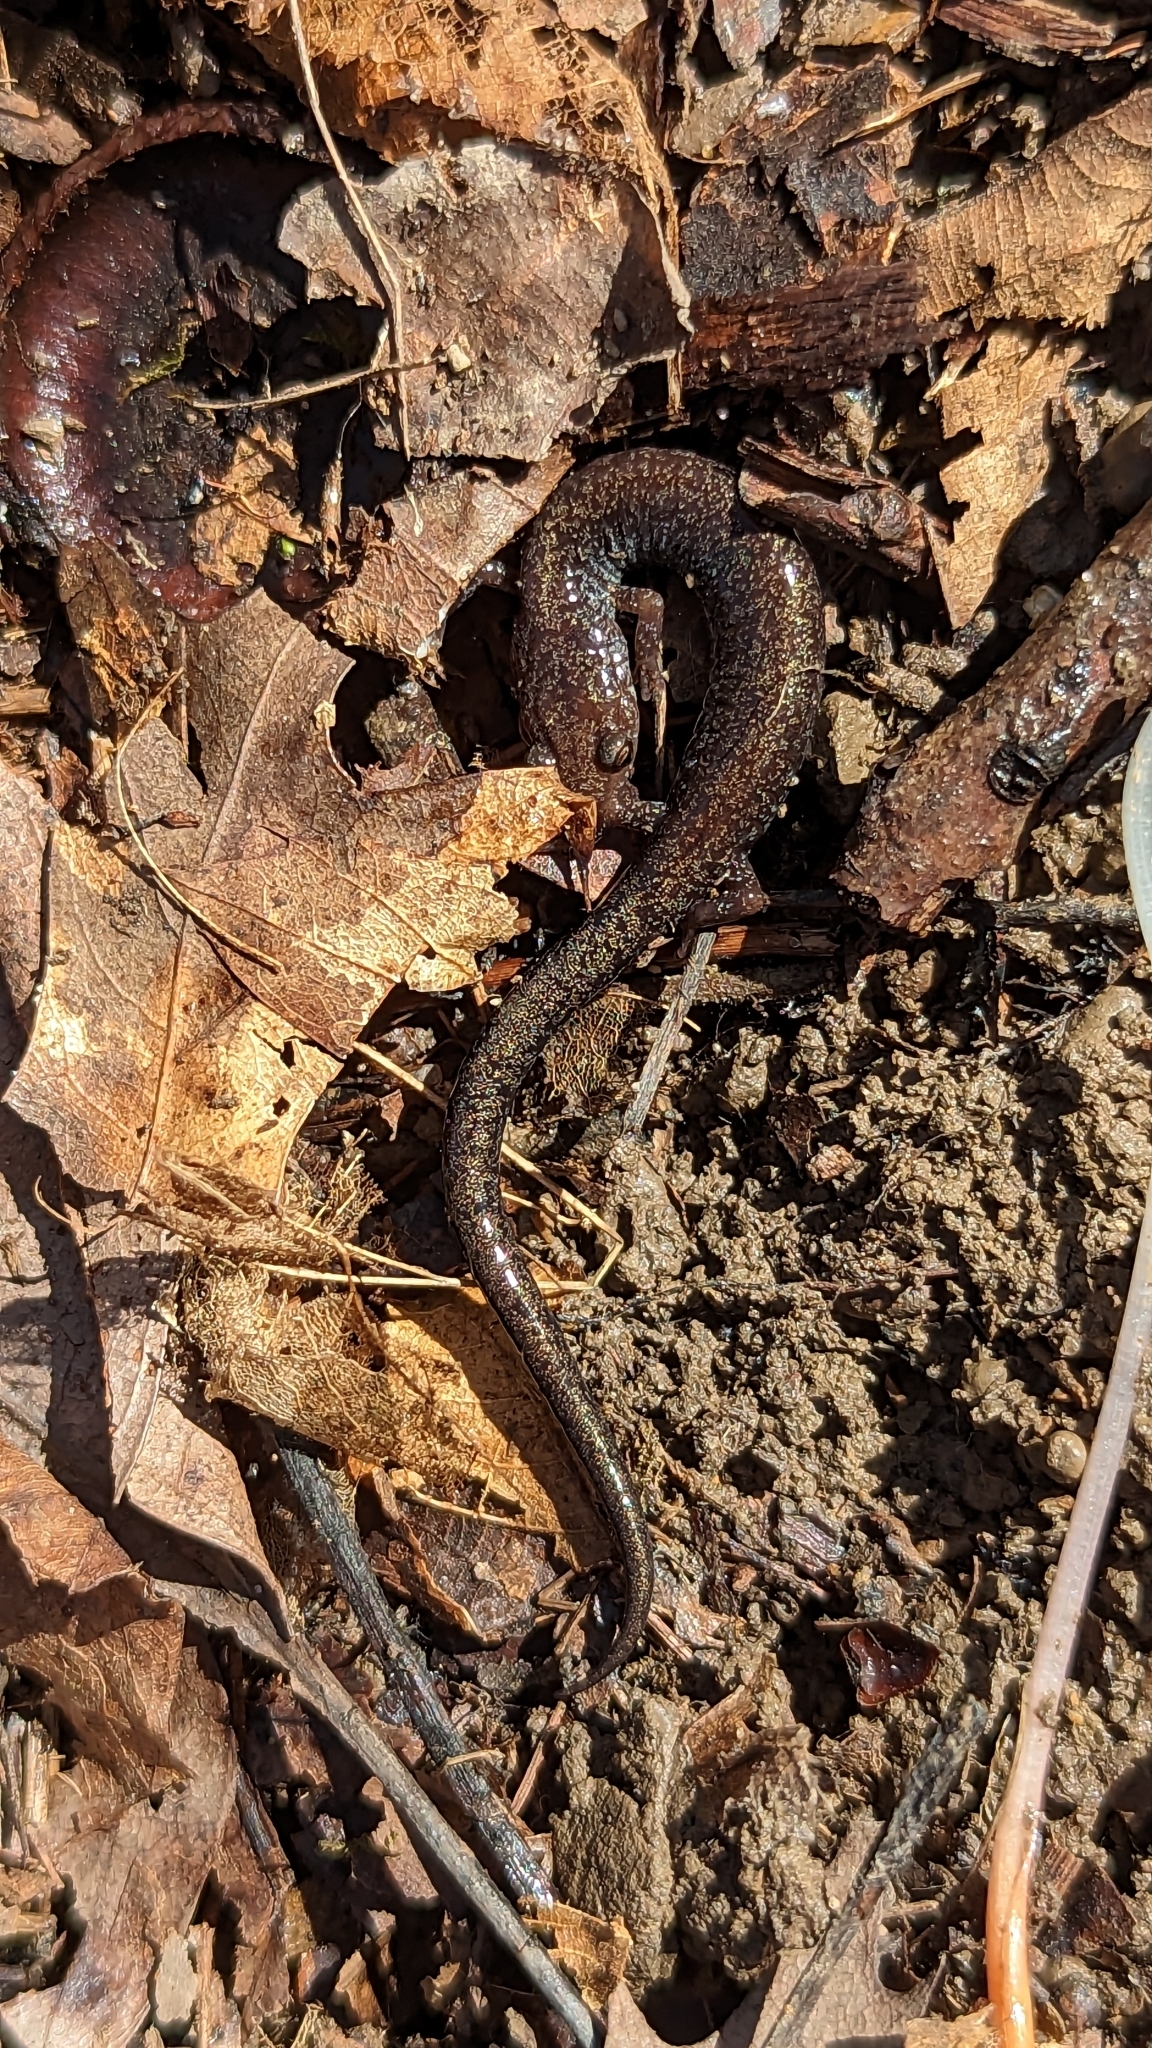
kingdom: Animalia
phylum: Chordata
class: Amphibia
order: Caudata
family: Plethodontidae
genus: Plethodon
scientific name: Plethodon cinereus
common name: Redback salamander
